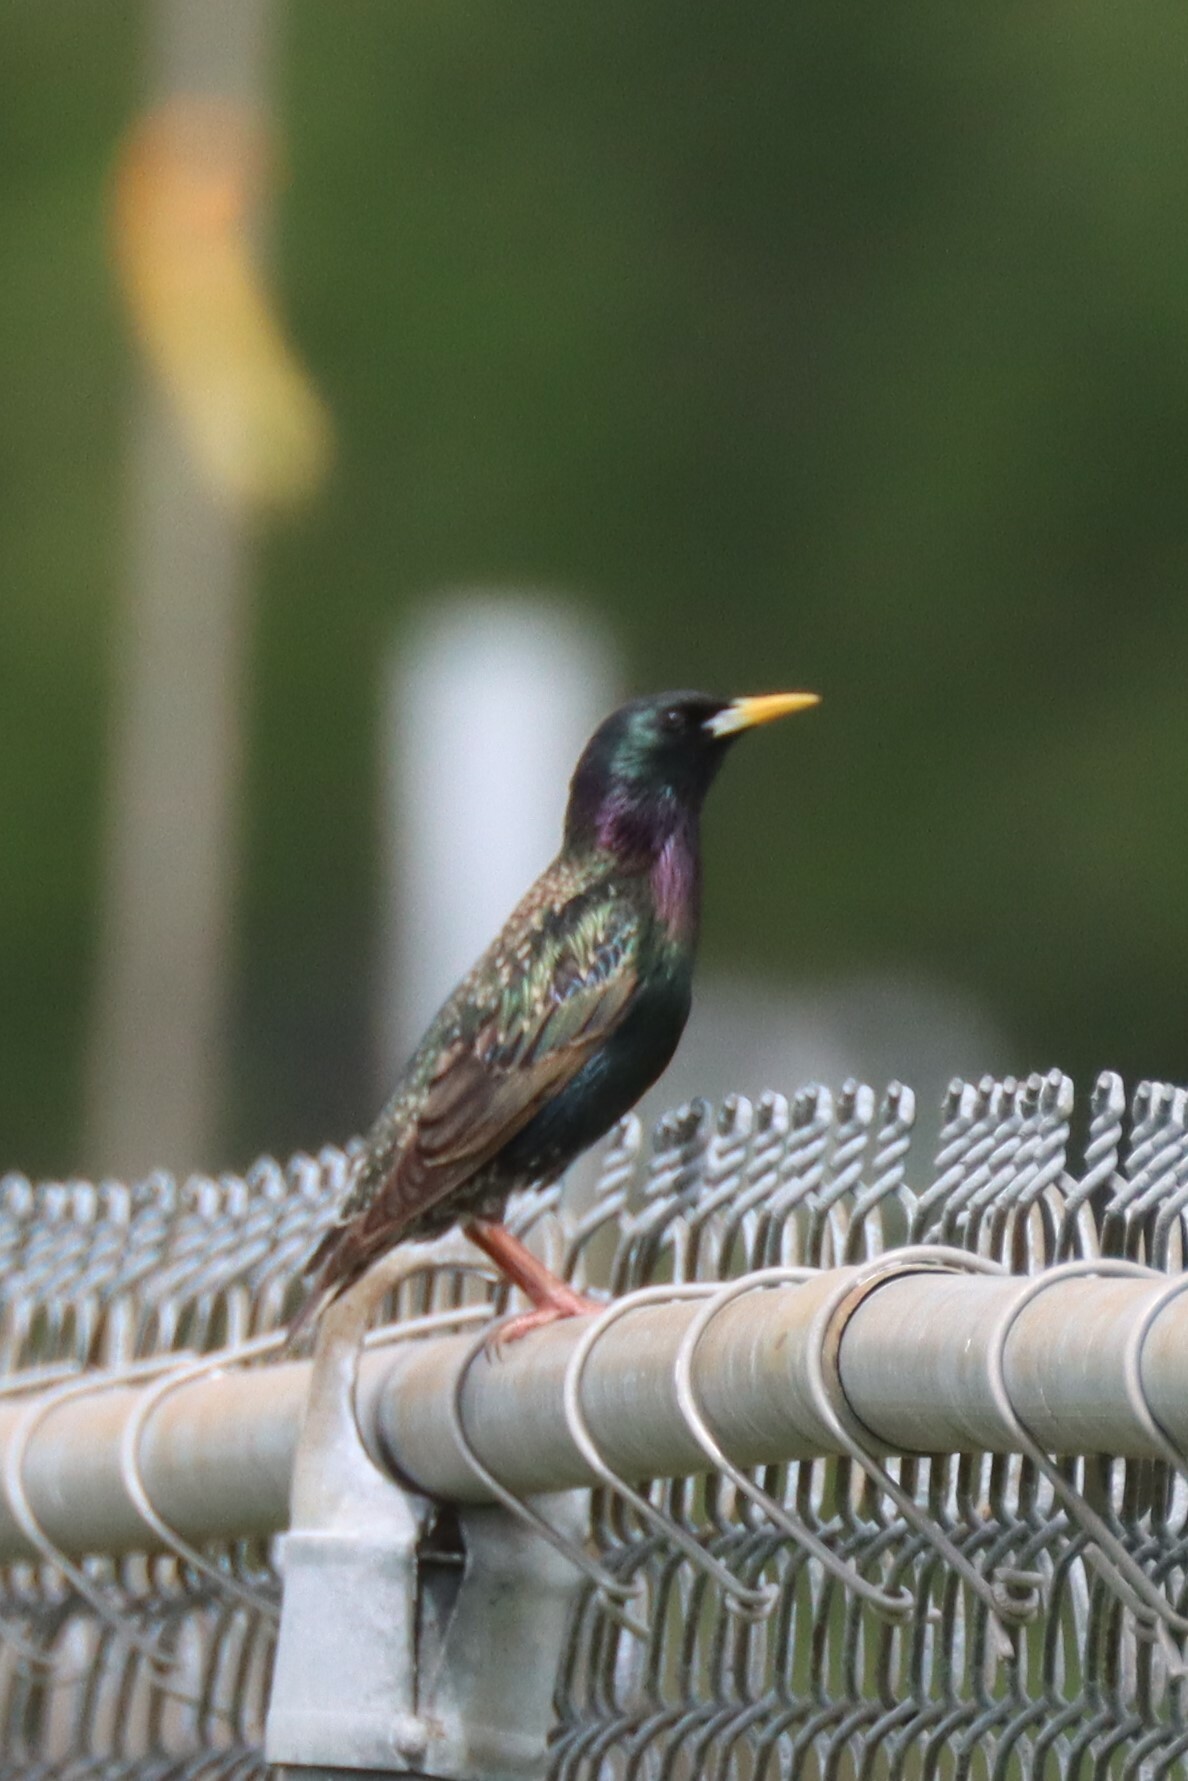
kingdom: Animalia
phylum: Chordata
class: Aves
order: Passeriformes
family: Sturnidae
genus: Sturnus
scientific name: Sturnus vulgaris
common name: Common starling
